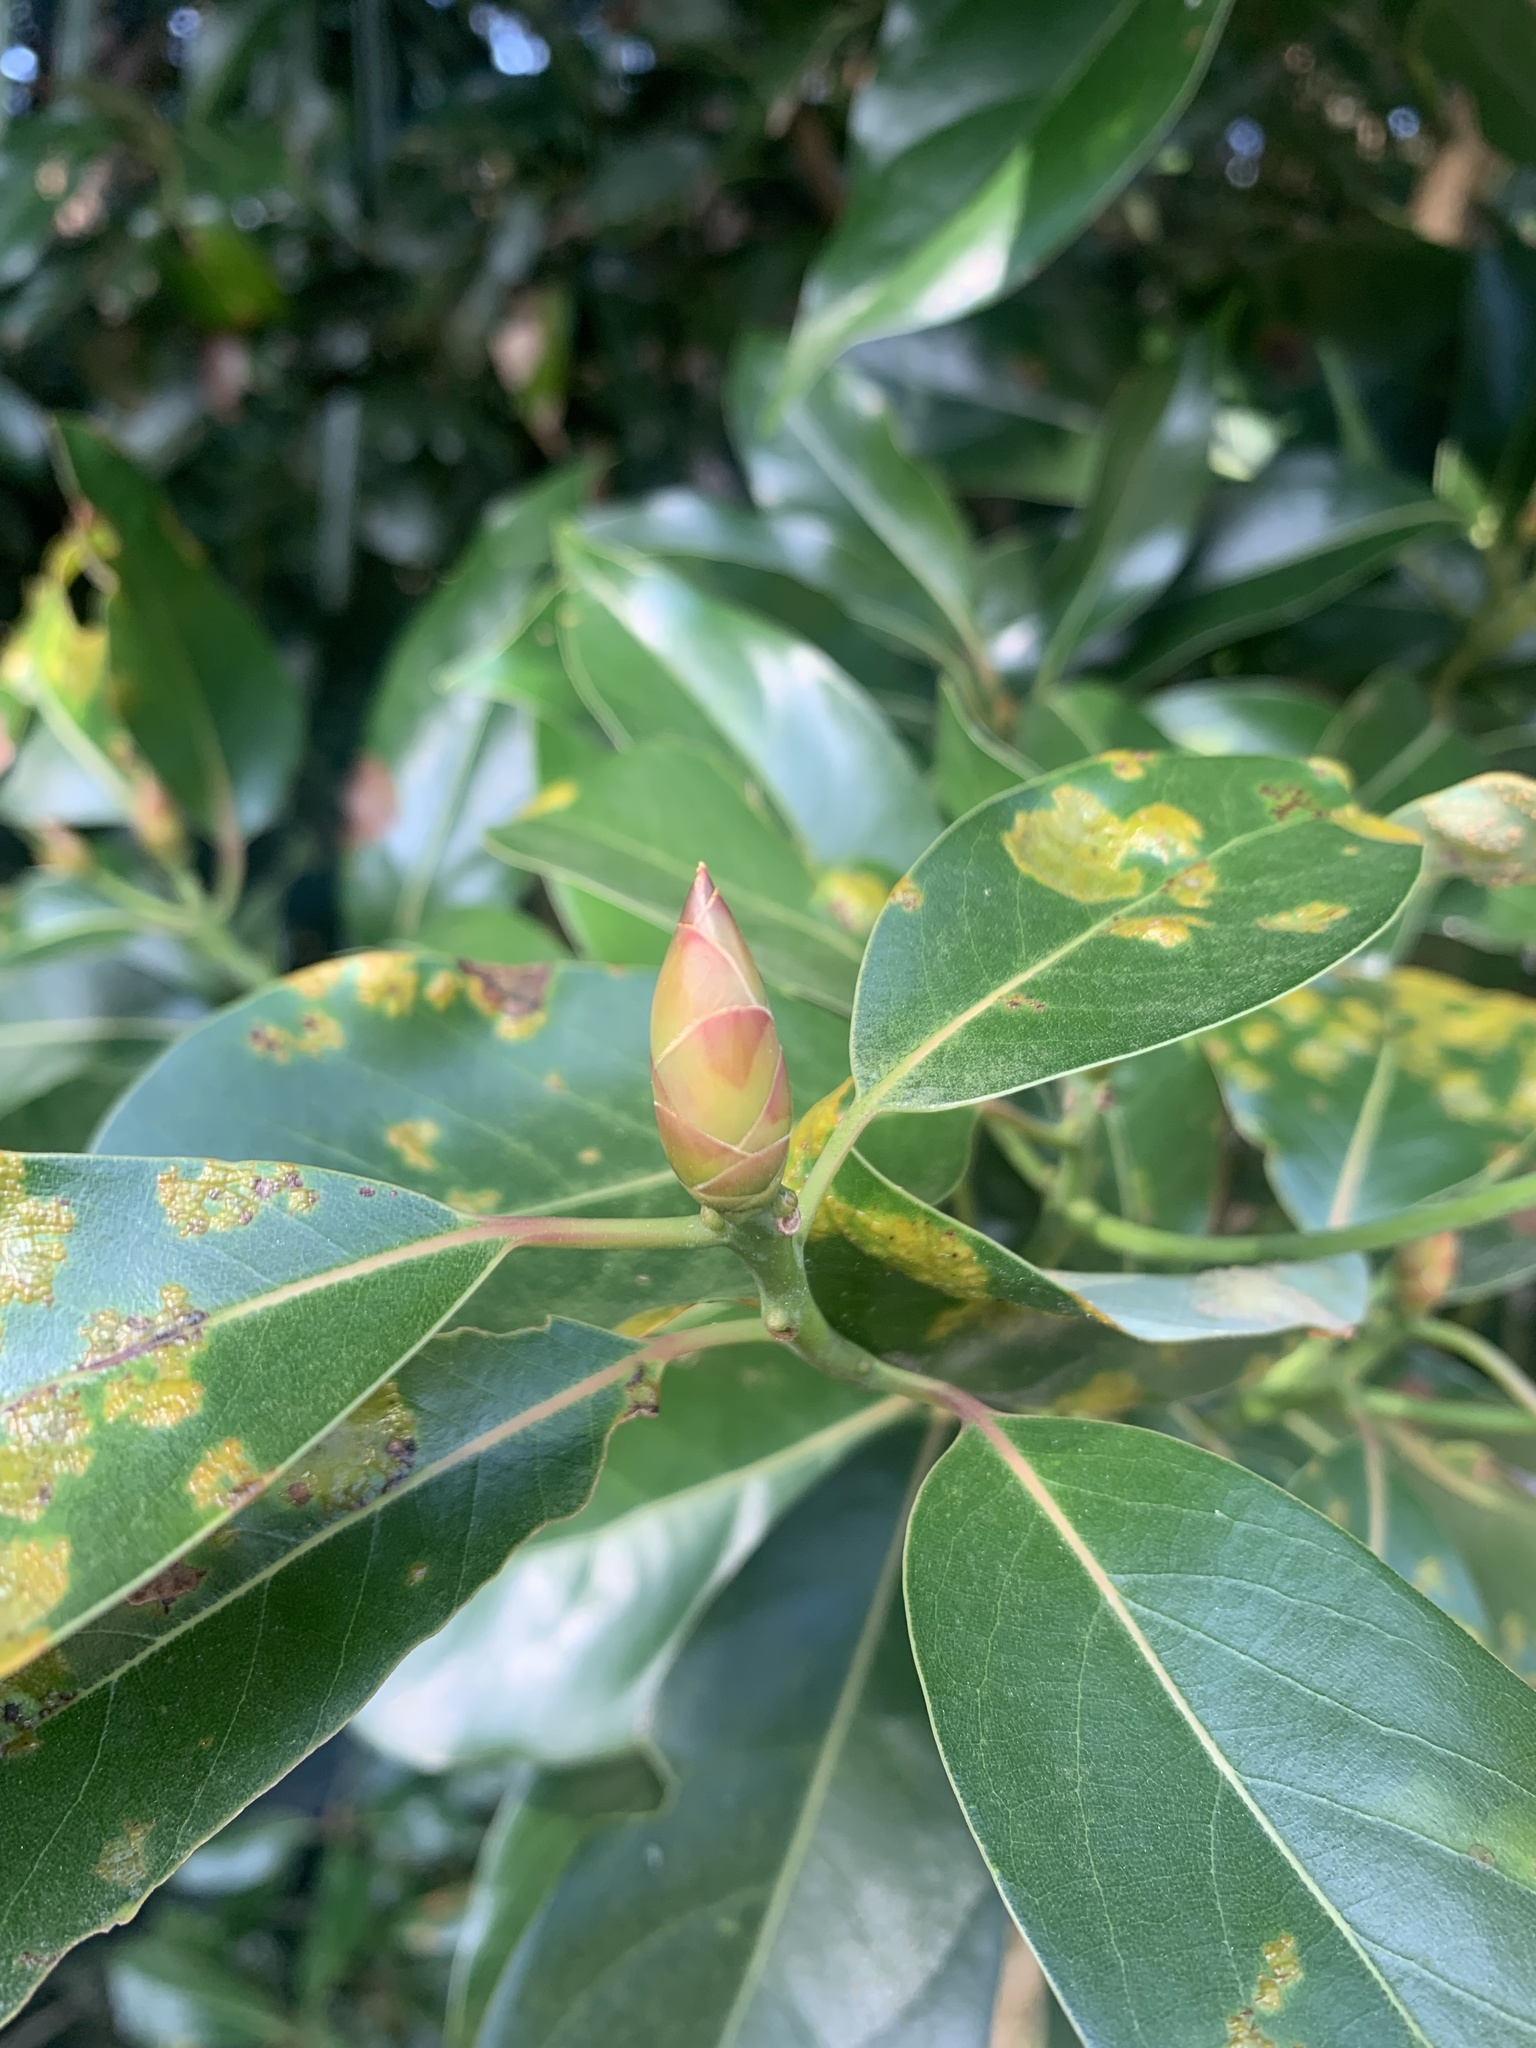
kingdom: Plantae
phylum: Tracheophyta
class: Magnoliopsida
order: Laurales
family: Lauraceae
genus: Machilus
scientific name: Machilus thunbergii
